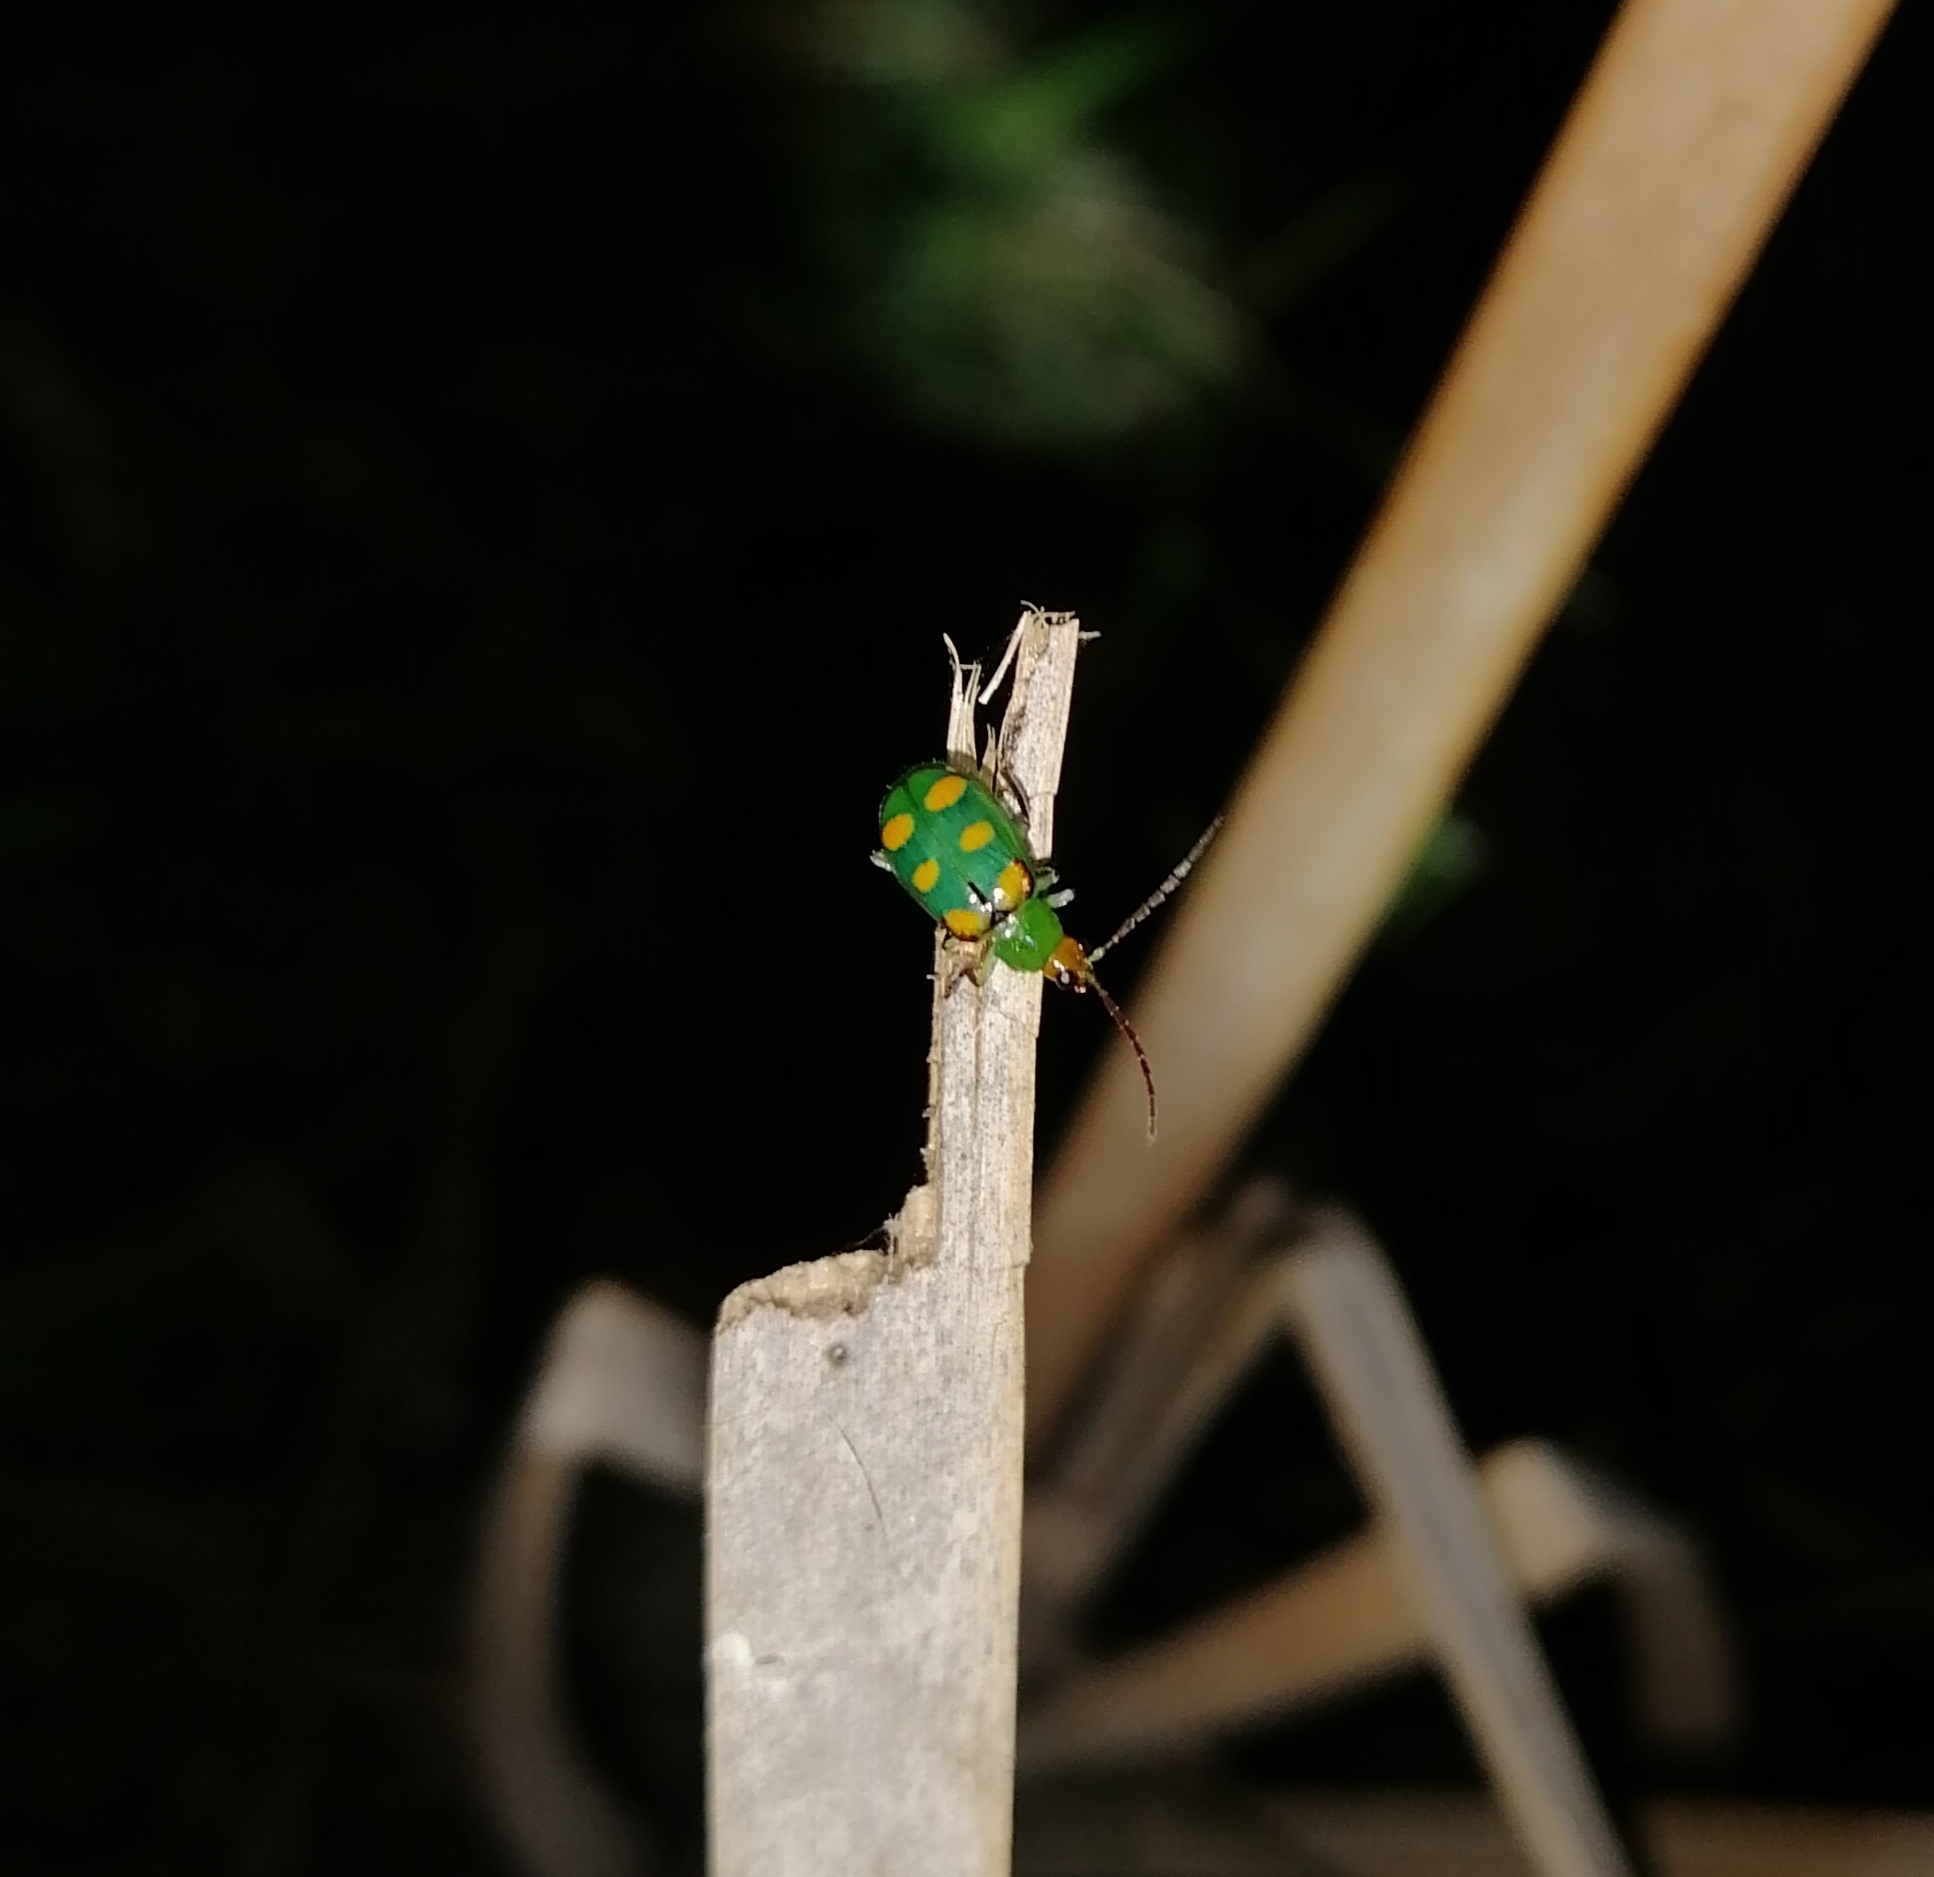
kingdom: Animalia
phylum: Arthropoda
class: Insecta
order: Coleoptera
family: Chrysomelidae
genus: Diabrotica
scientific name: Diabrotica speciosa
